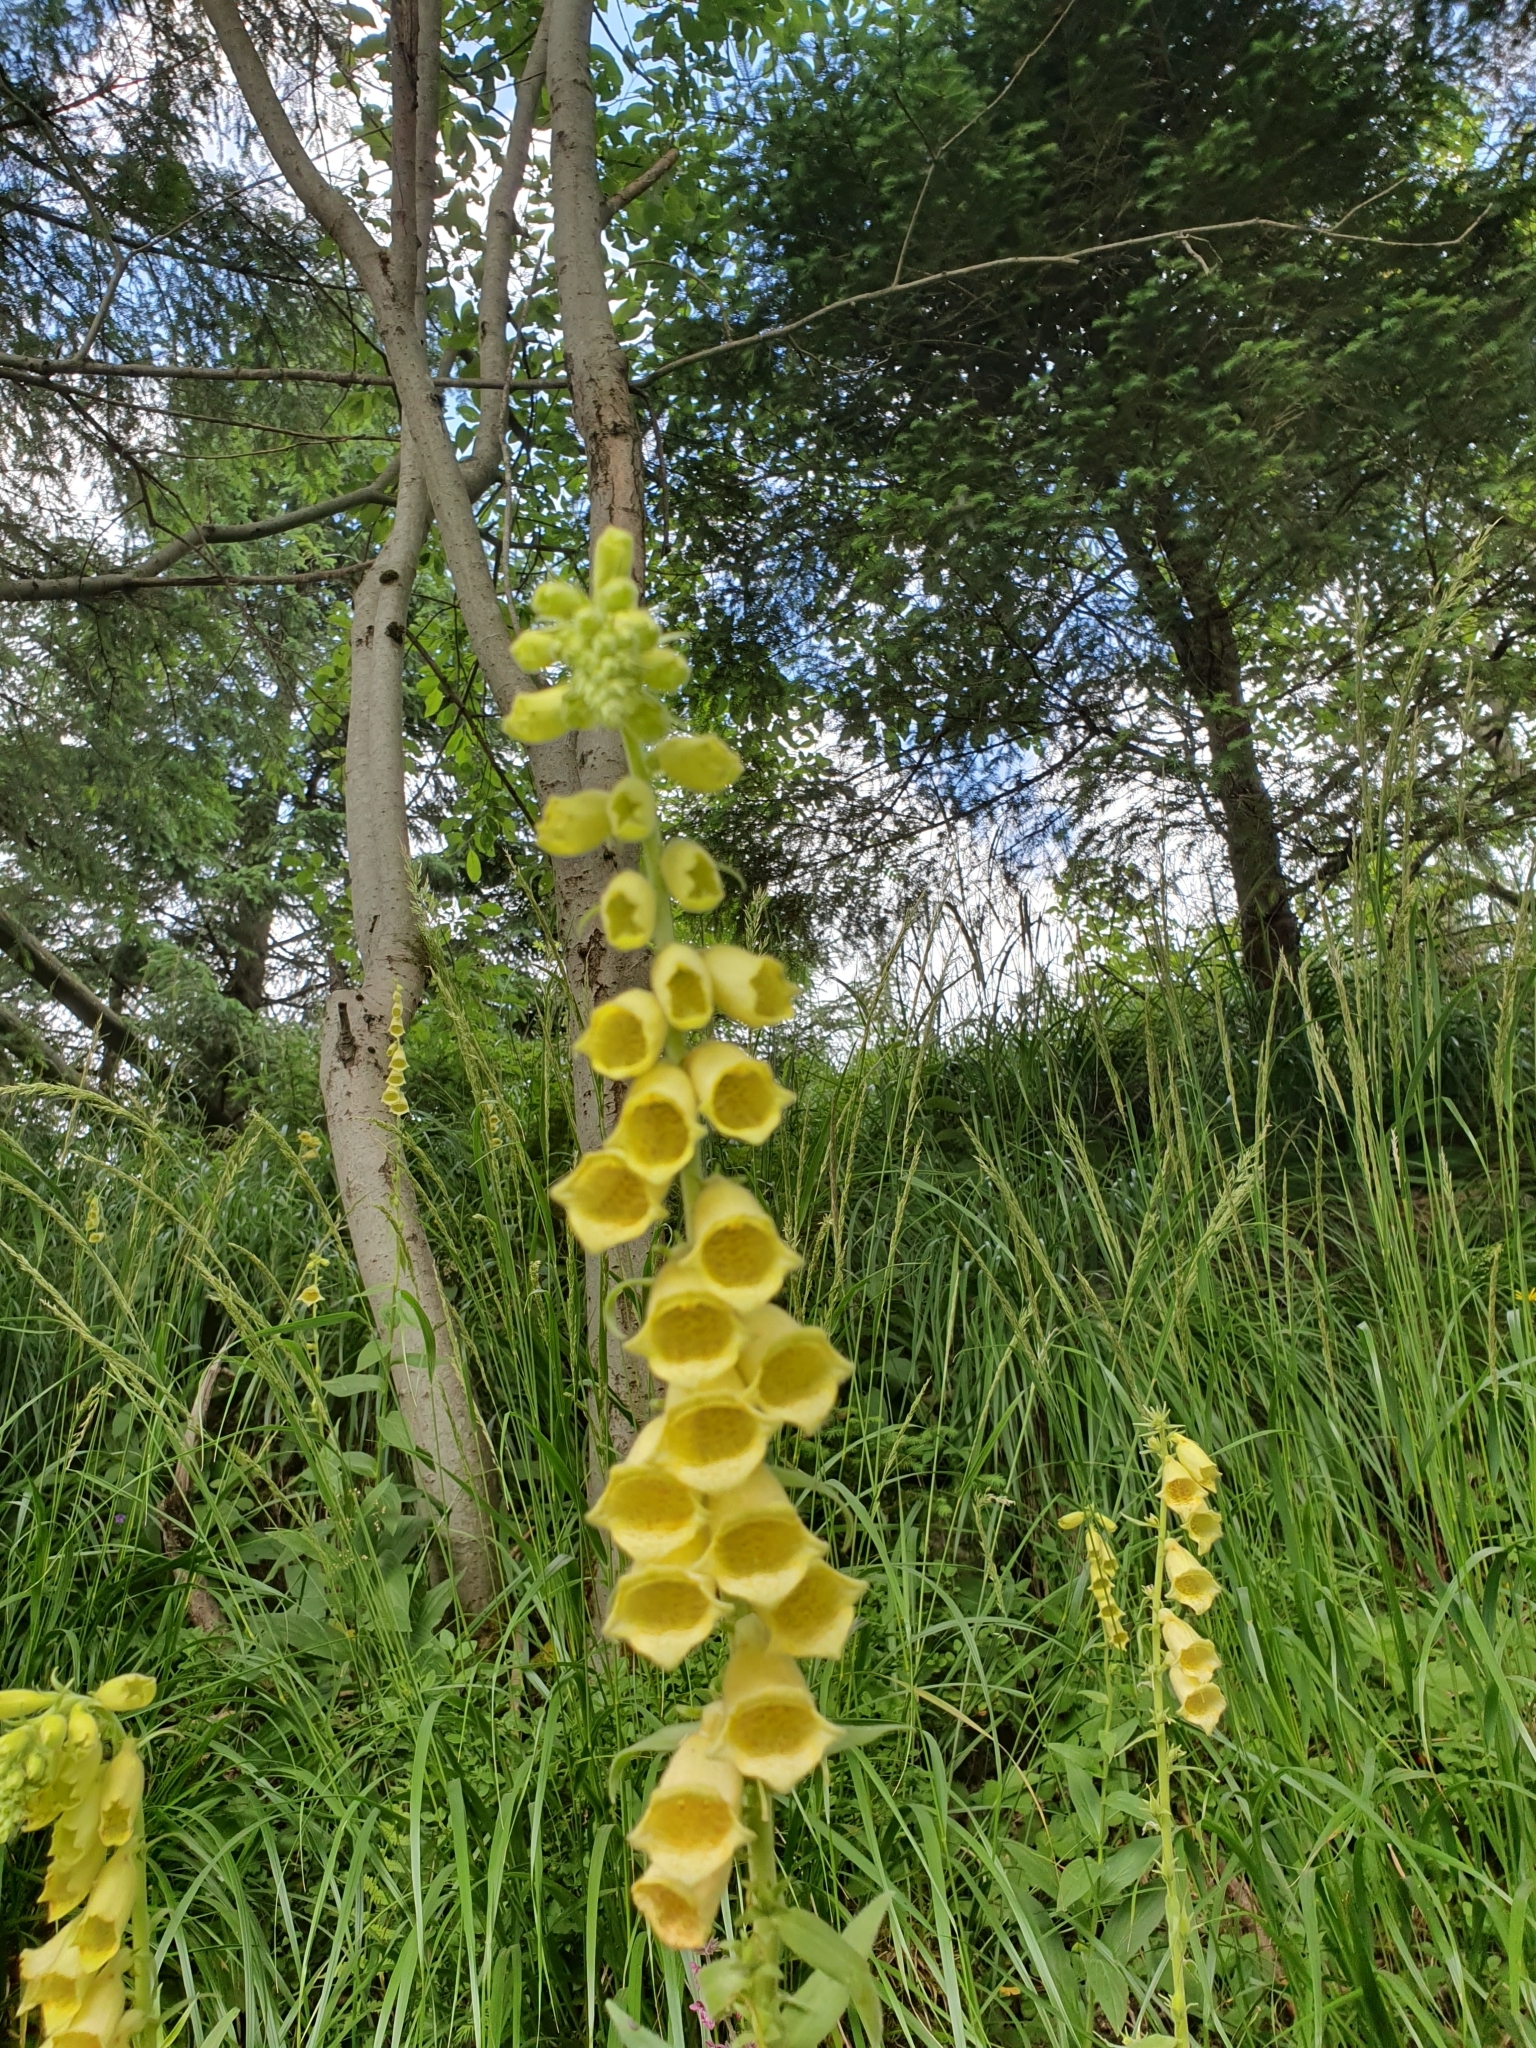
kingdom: Plantae
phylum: Tracheophyta
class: Magnoliopsida
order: Lamiales
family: Plantaginaceae
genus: Digitalis
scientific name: Digitalis grandiflora
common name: Yellow foxglove
